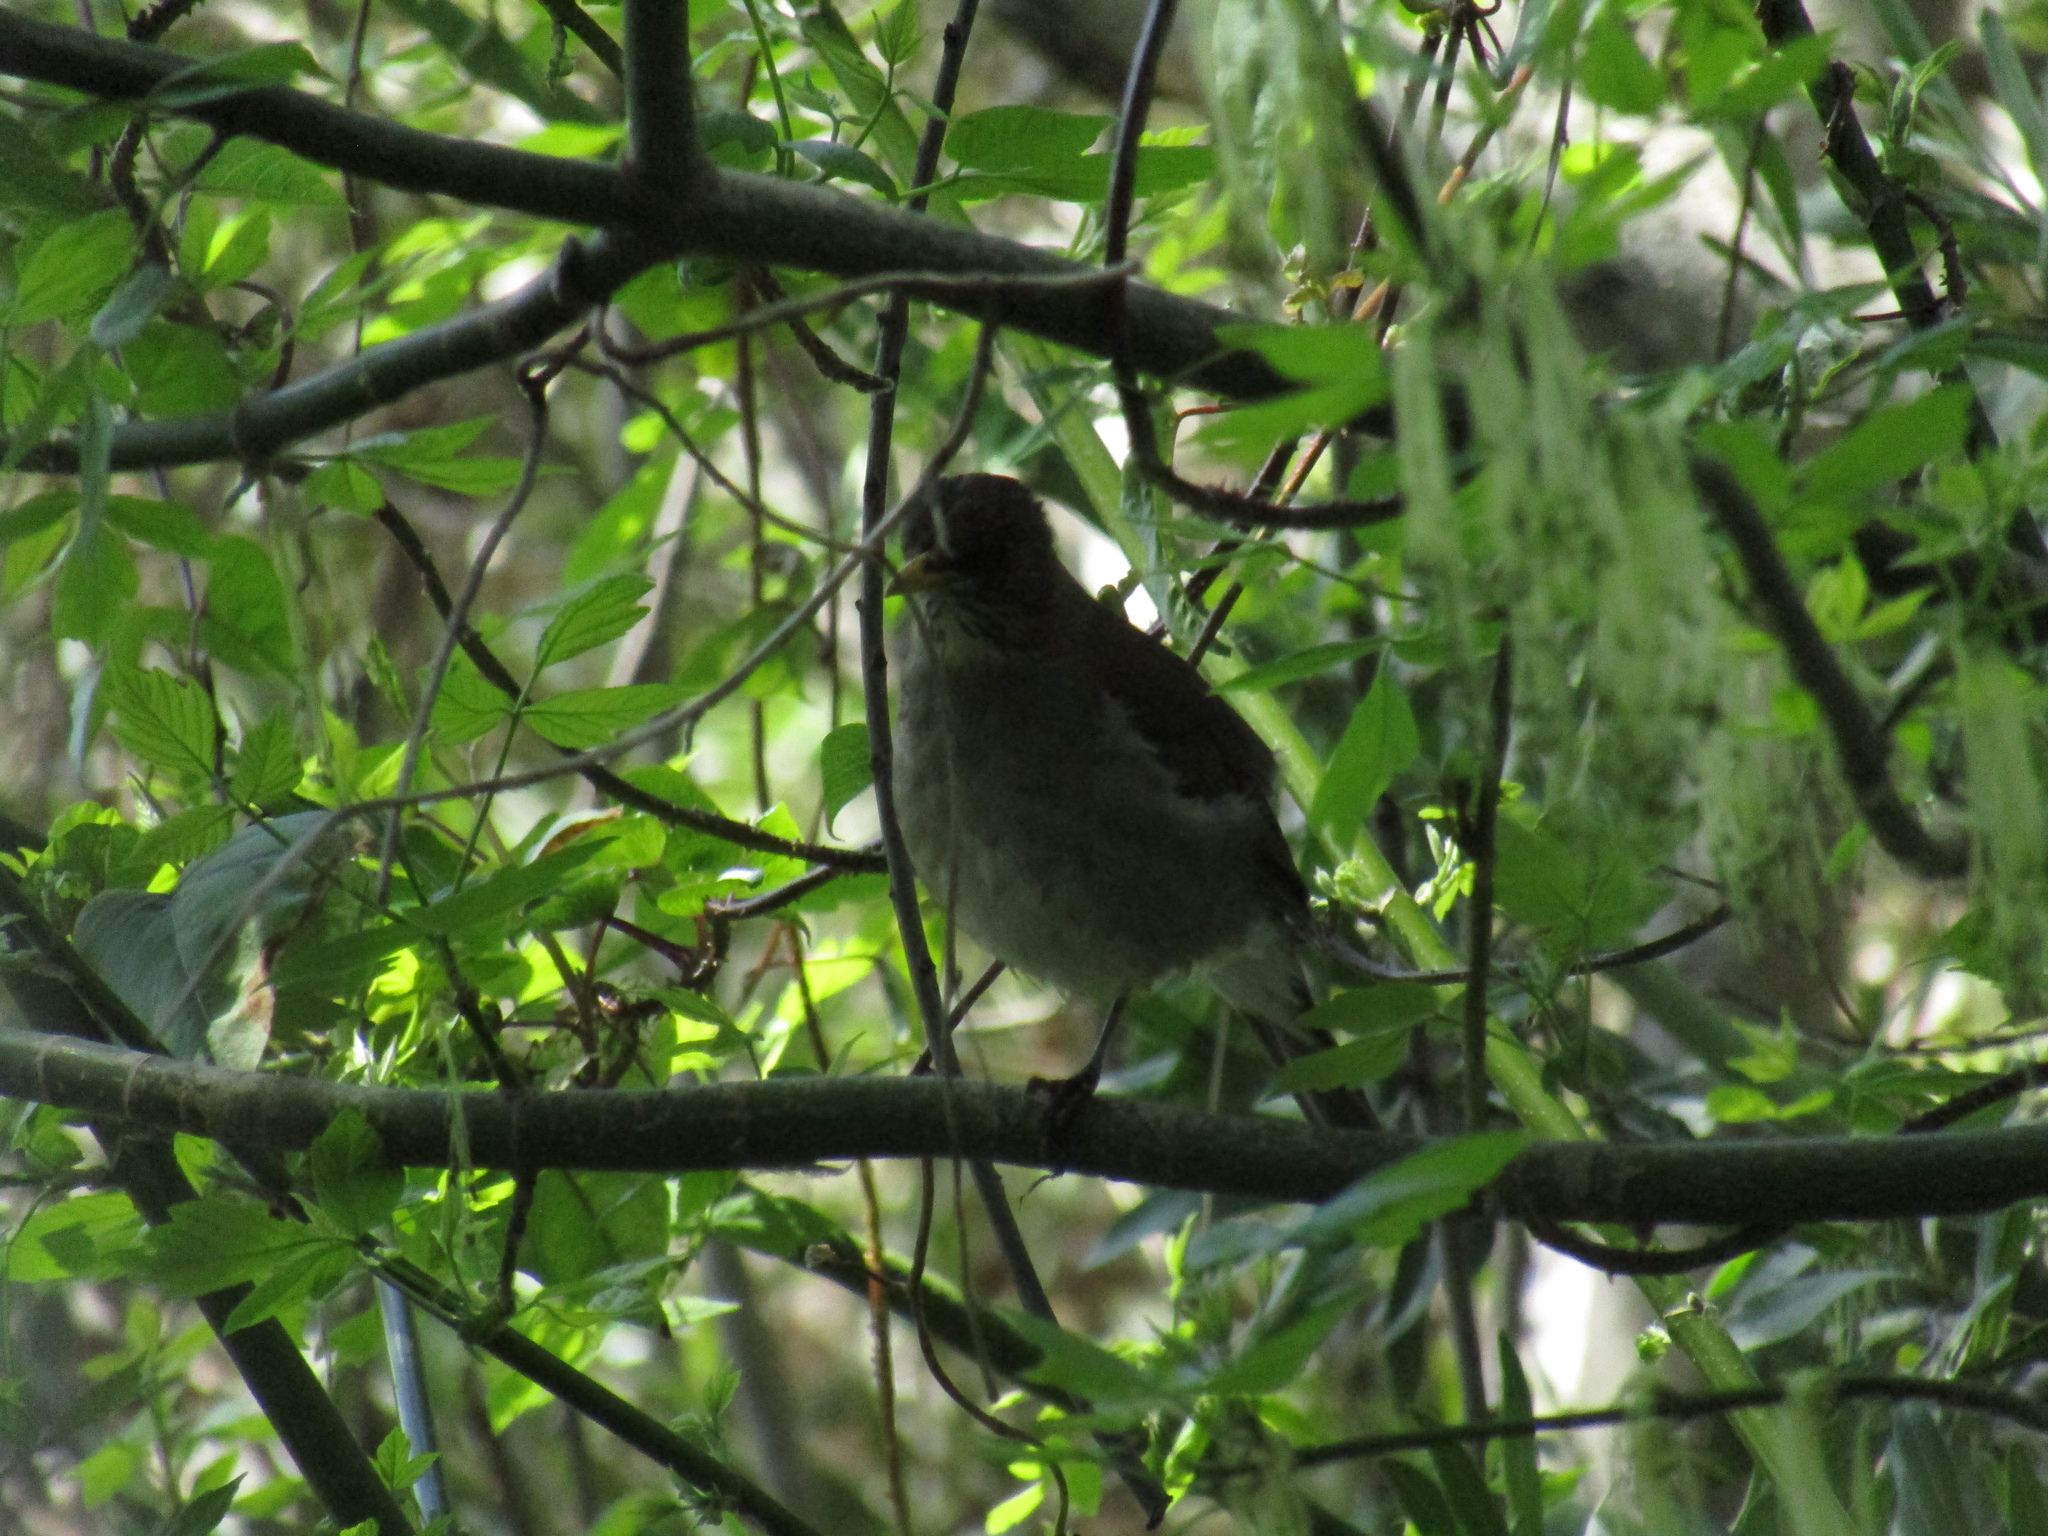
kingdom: Animalia
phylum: Chordata
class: Aves
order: Passeriformes
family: Turdidae
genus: Turdus
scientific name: Turdus amaurochalinus
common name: Creamy-bellied thrush
